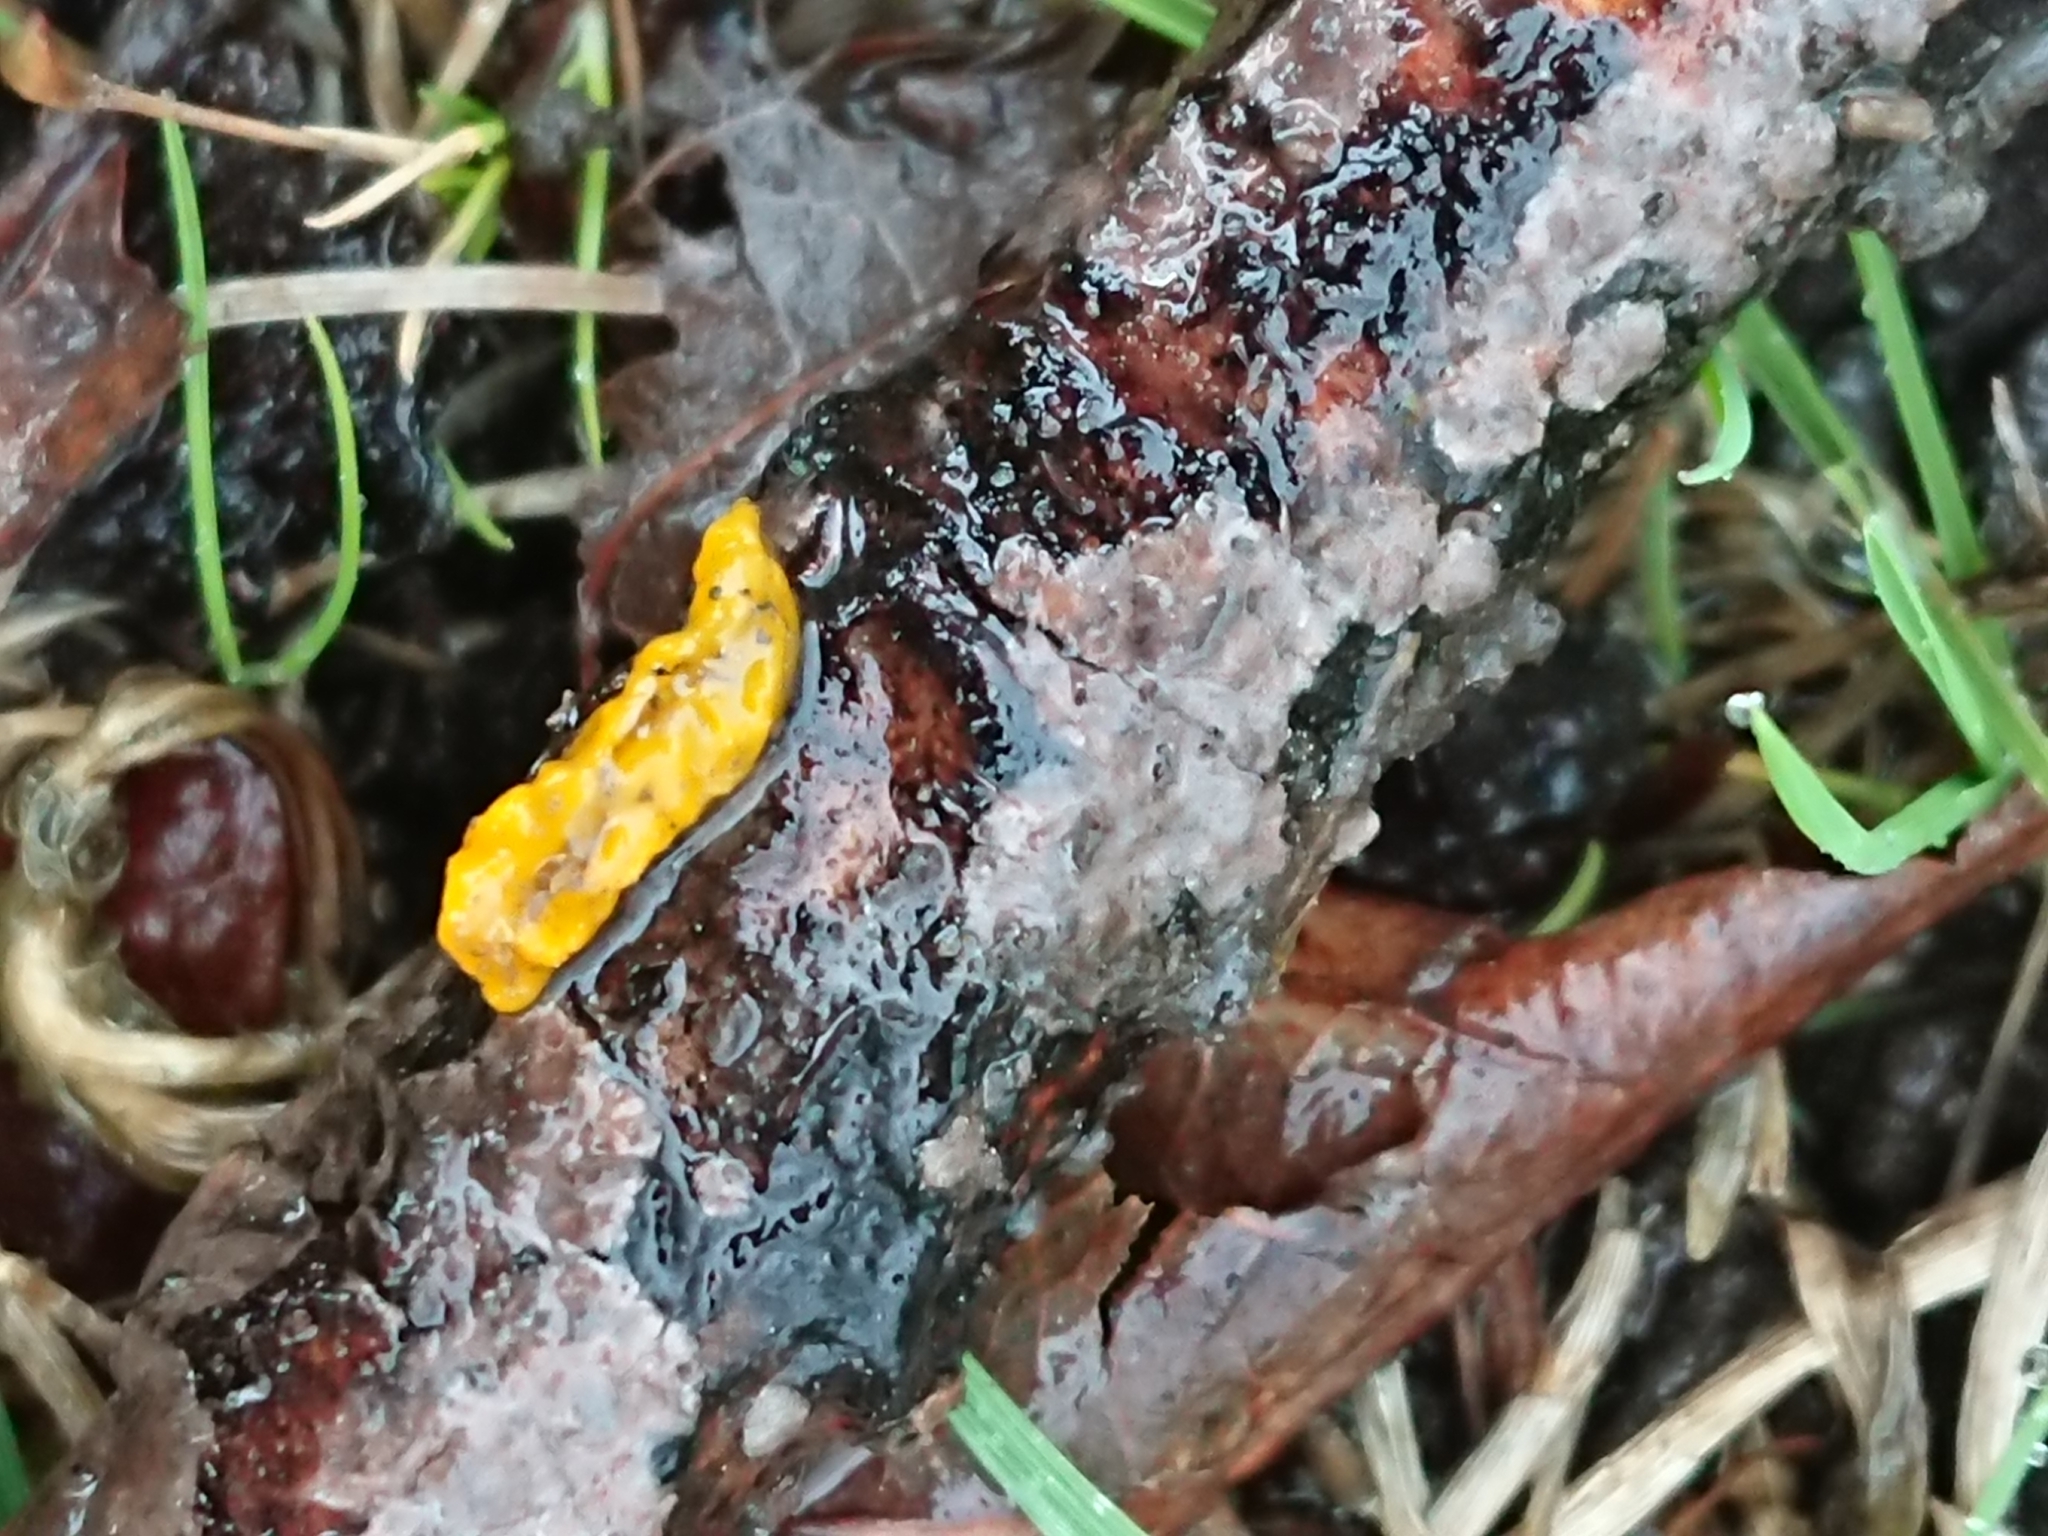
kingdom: Fungi
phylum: Basidiomycota
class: Tremellomycetes
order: Tremellales
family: Tremellaceae
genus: Tremella
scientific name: Tremella mesenterica
